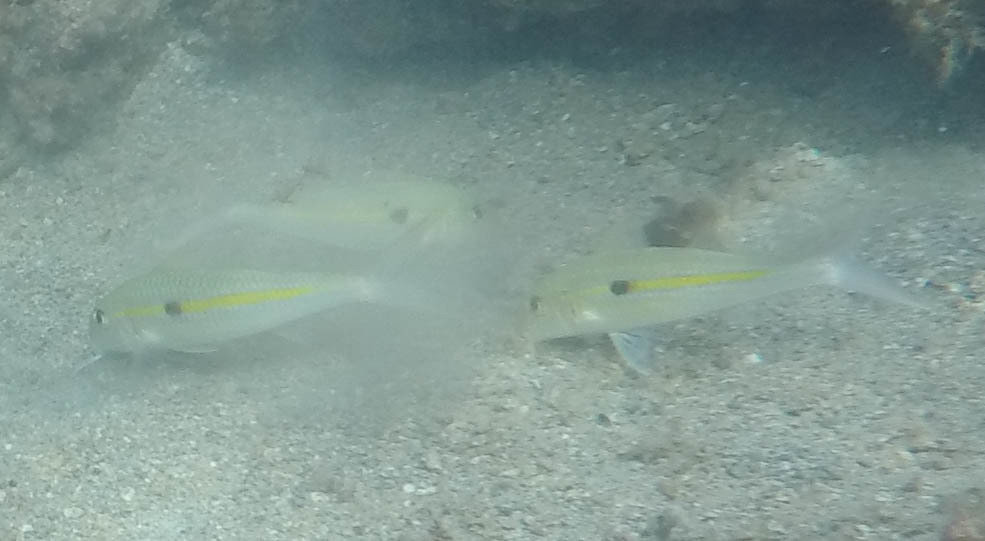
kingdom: Animalia
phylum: Chordata
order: Perciformes
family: Mullidae
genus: Mulloidichthys
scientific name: Mulloidichthys flavolineatus
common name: Yellowstripe goatfish
